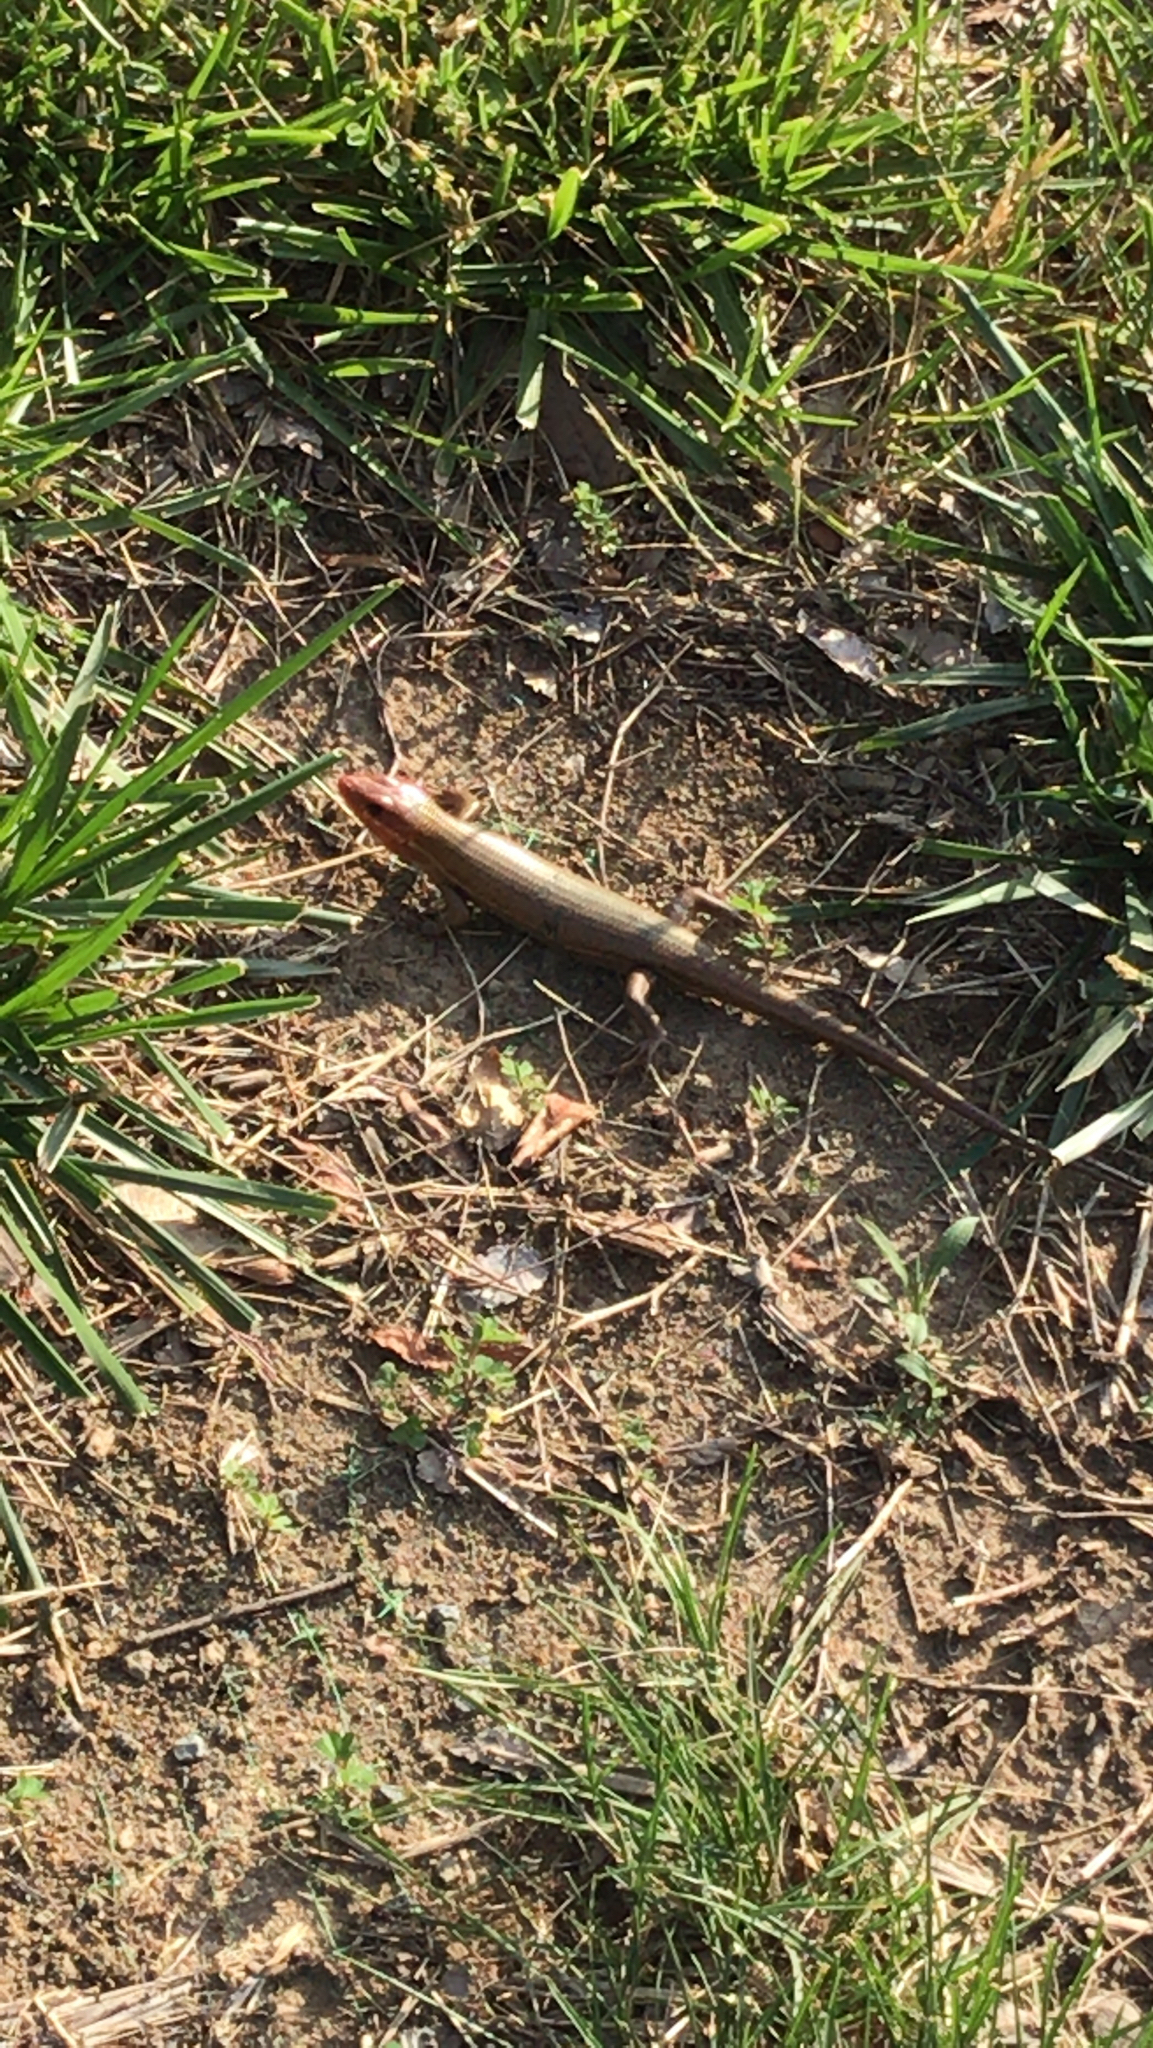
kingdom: Animalia
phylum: Chordata
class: Squamata
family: Scincidae
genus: Plestiodon
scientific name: Plestiodon laticeps
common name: Broadhead skink
